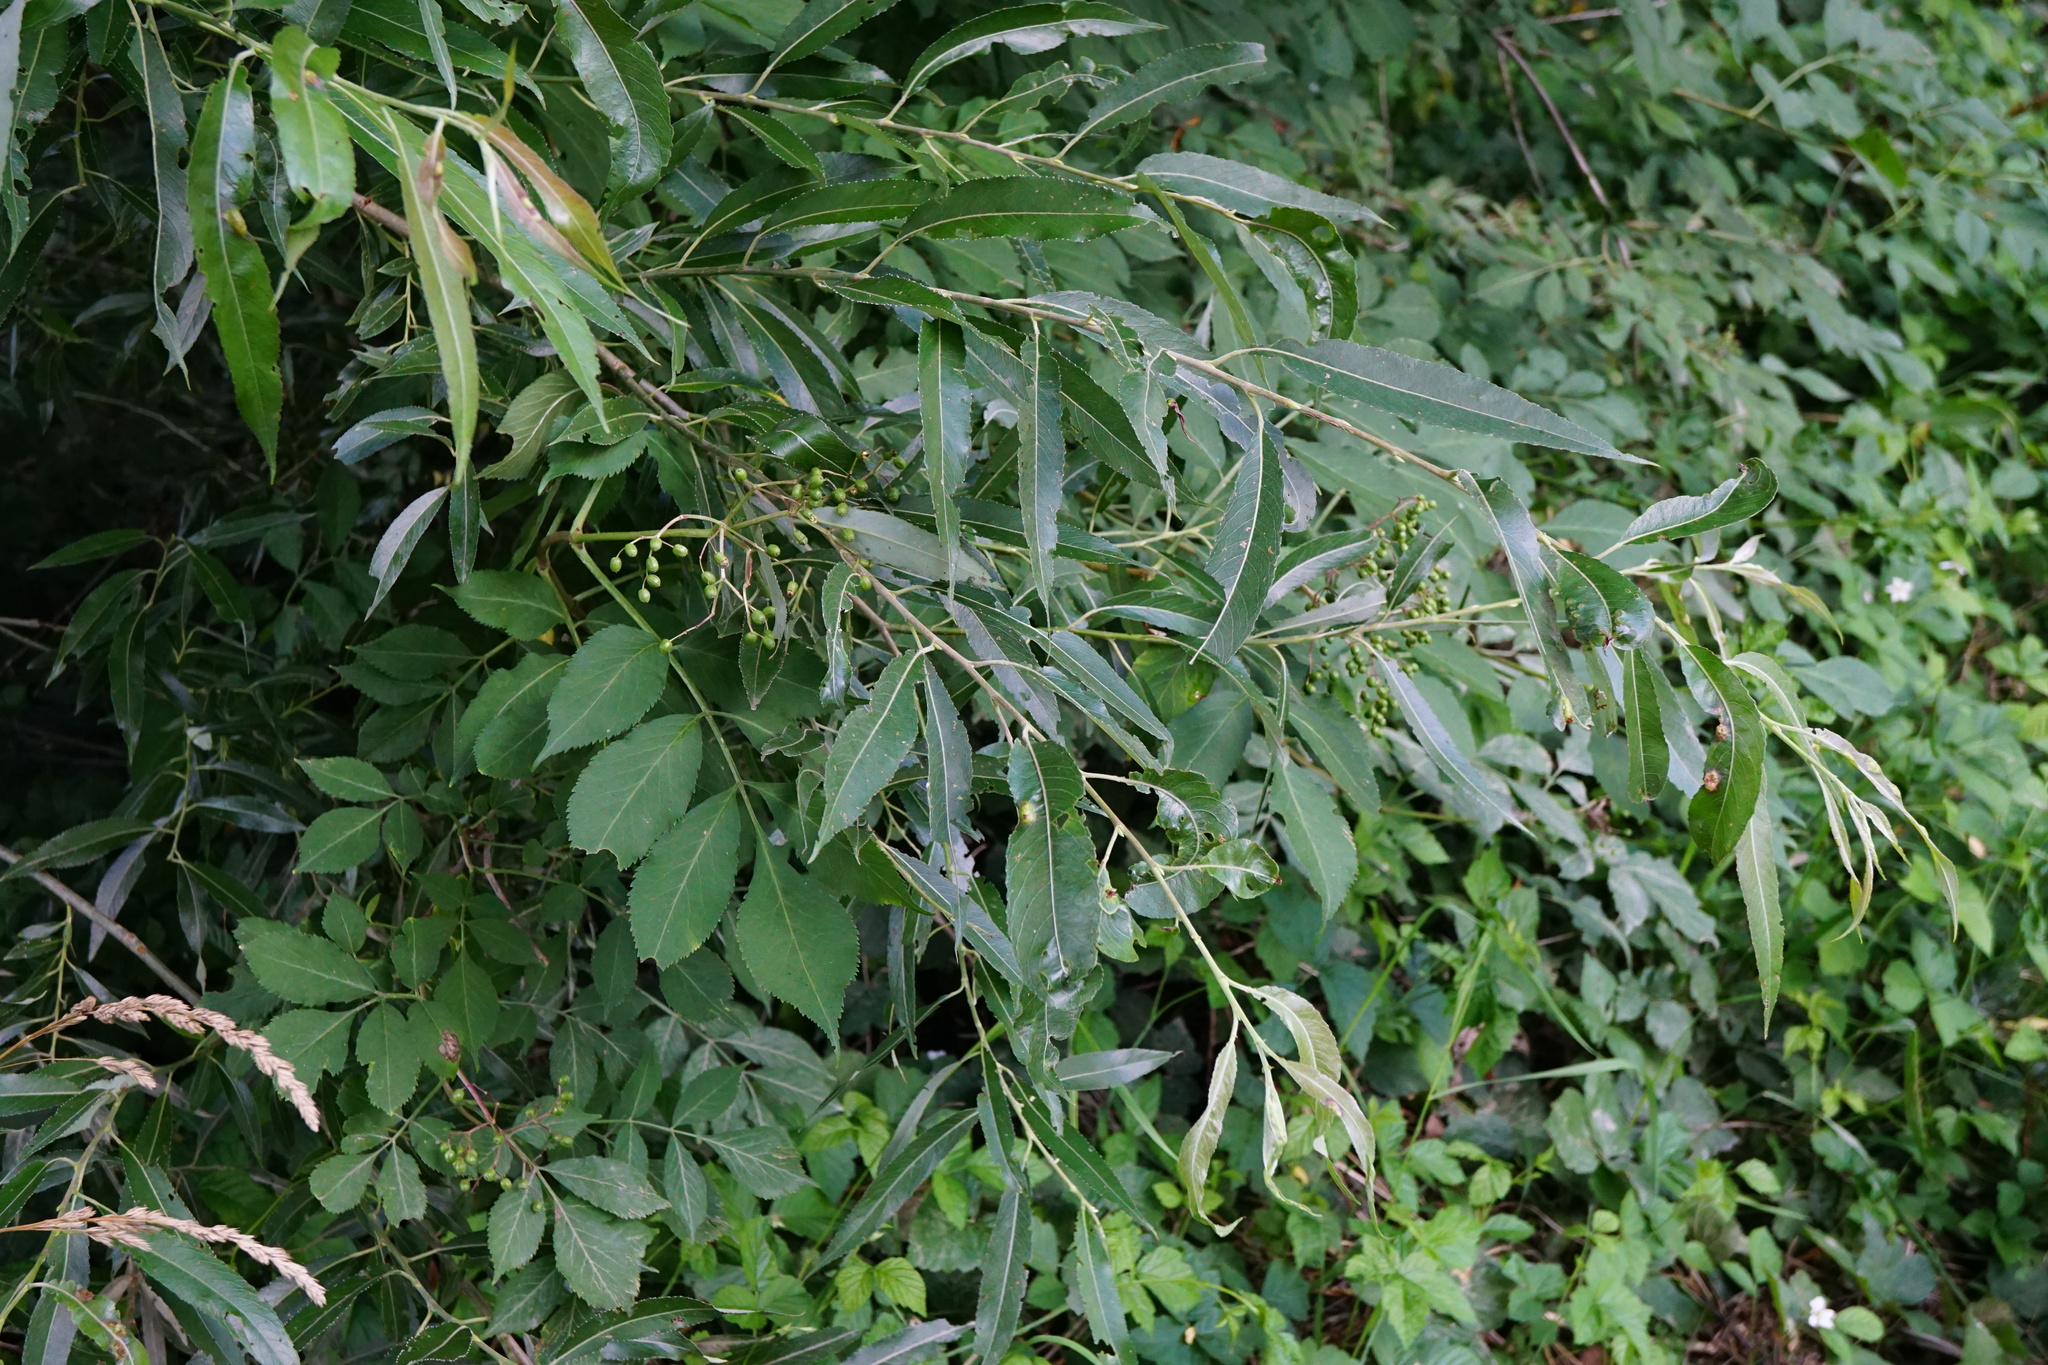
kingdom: Plantae
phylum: Tracheophyta
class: Magnoliopsida
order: Malpighiales
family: Salicaceae
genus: Salix
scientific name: Salix alba
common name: White willow
